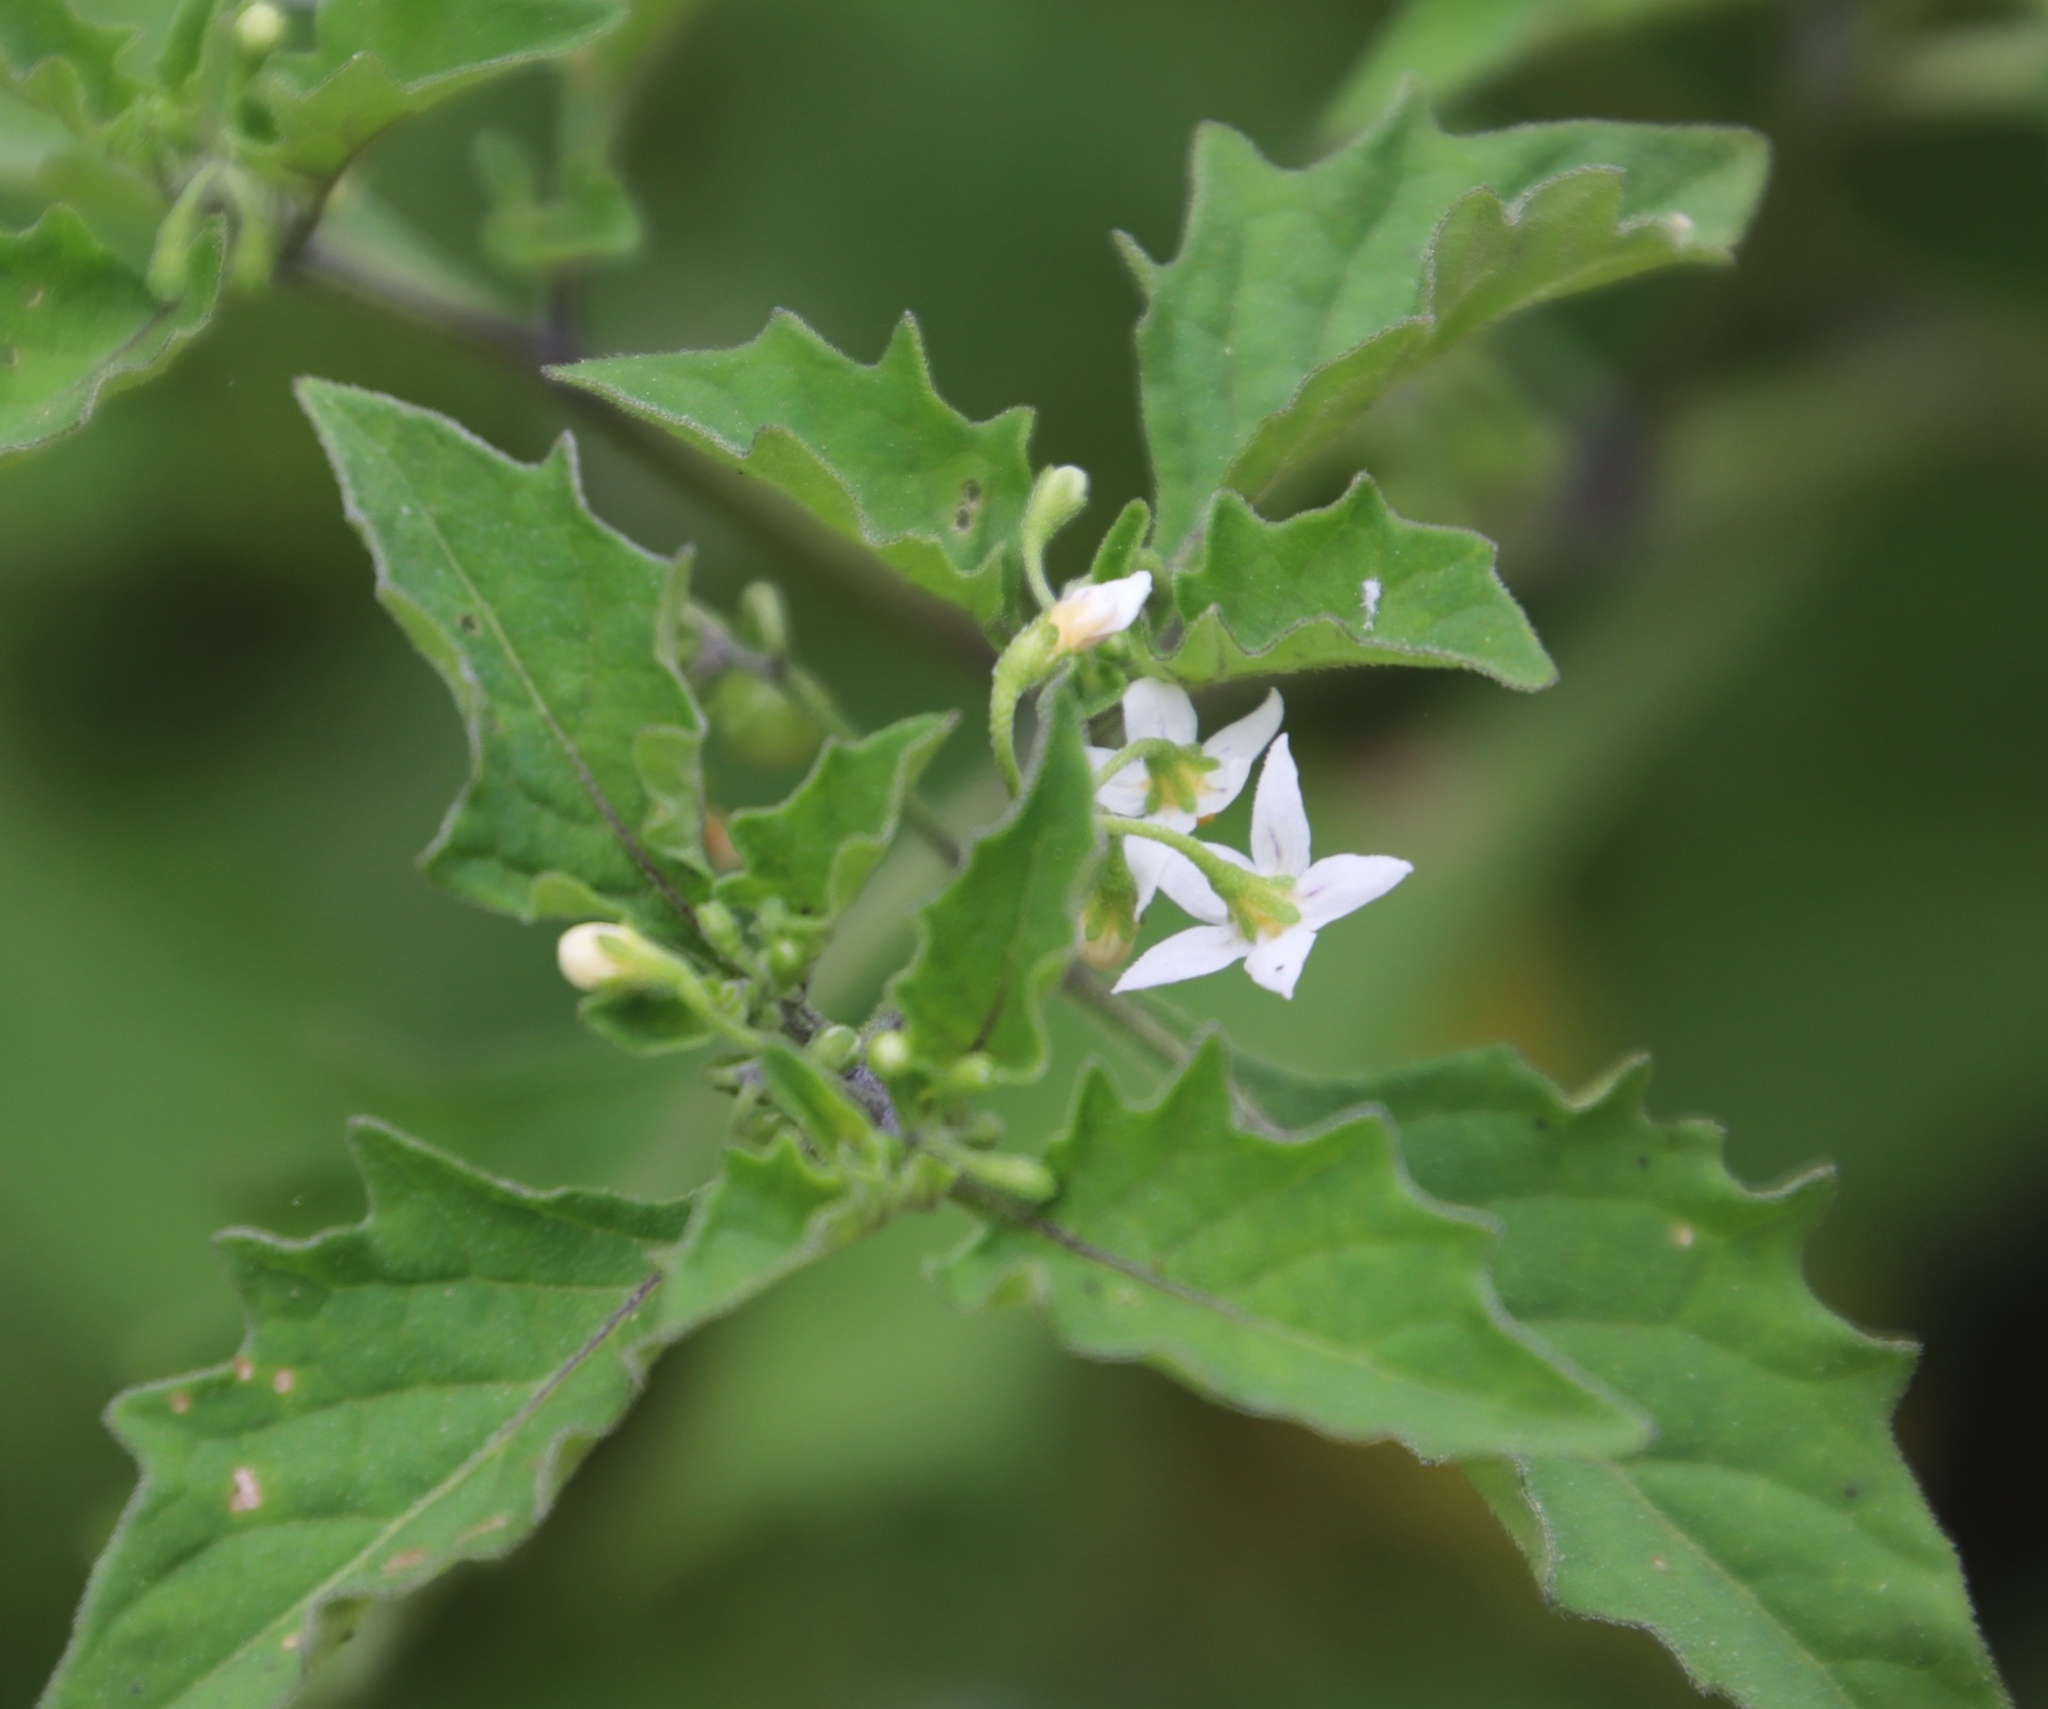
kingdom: Plantae
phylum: Tracheophyta
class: Magnoliopsida
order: Solanales
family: Solanaceae
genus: Solanum
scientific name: Solanum retroflexum
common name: Wonderberry
